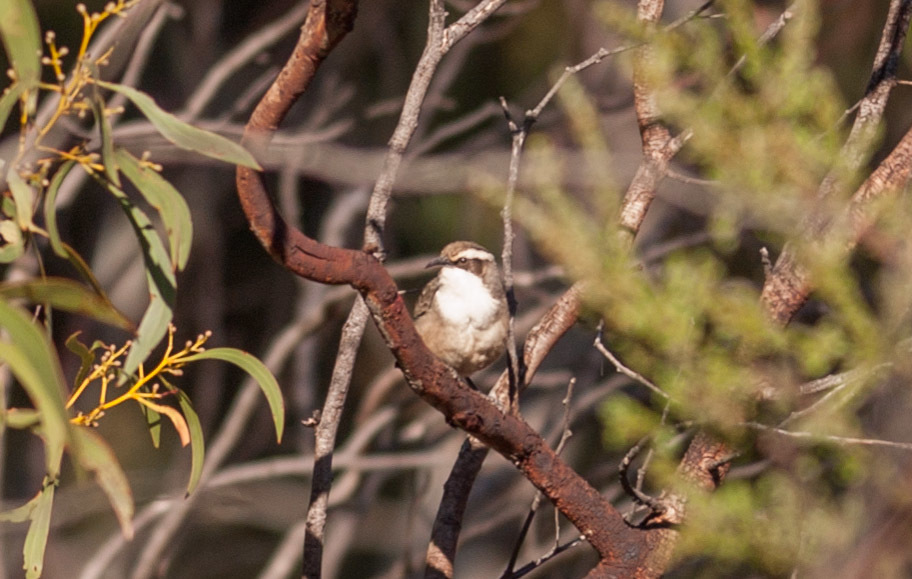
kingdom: Animalia
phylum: Chordata
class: Aves
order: Passeriformes
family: Pomatostomidae
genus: Pomatostomus
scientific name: Pomatostomus superciliosus
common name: White-browed babbler
